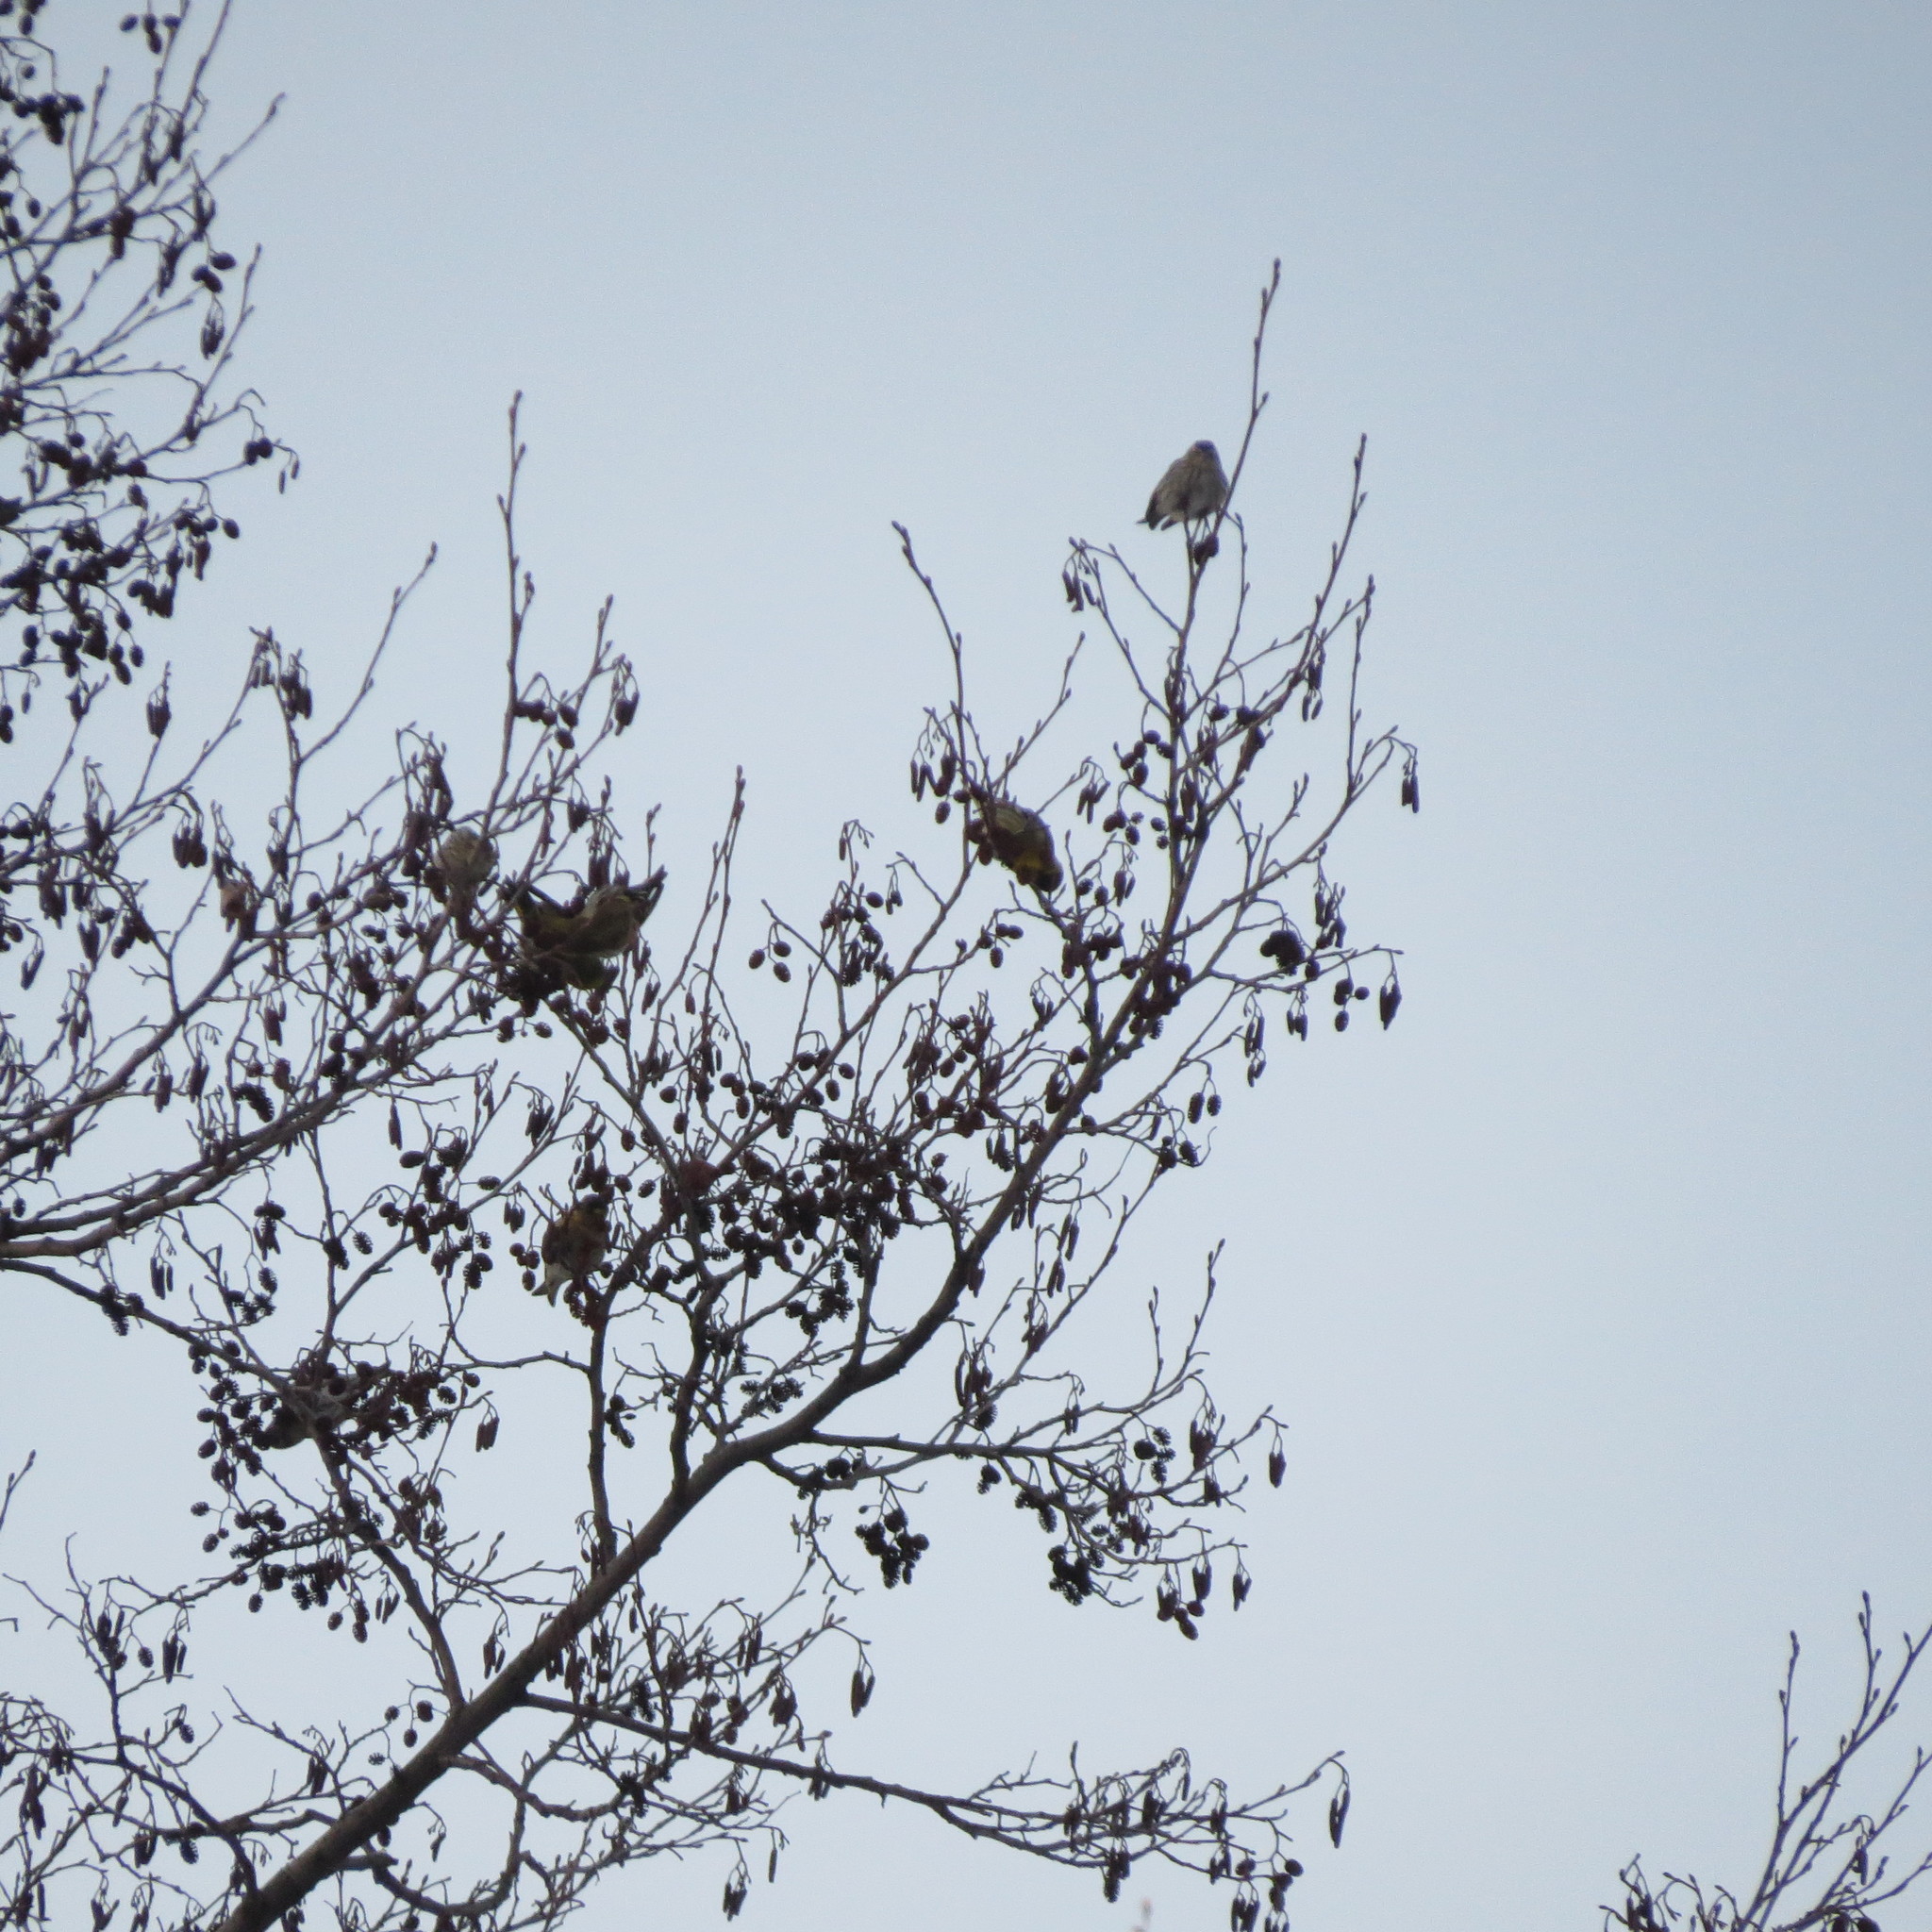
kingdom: Animalia
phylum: Chordata
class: Aves
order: Passeriformes
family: Fringillidae
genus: Spinus
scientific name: Spinus spinus
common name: Eurasian siskin
